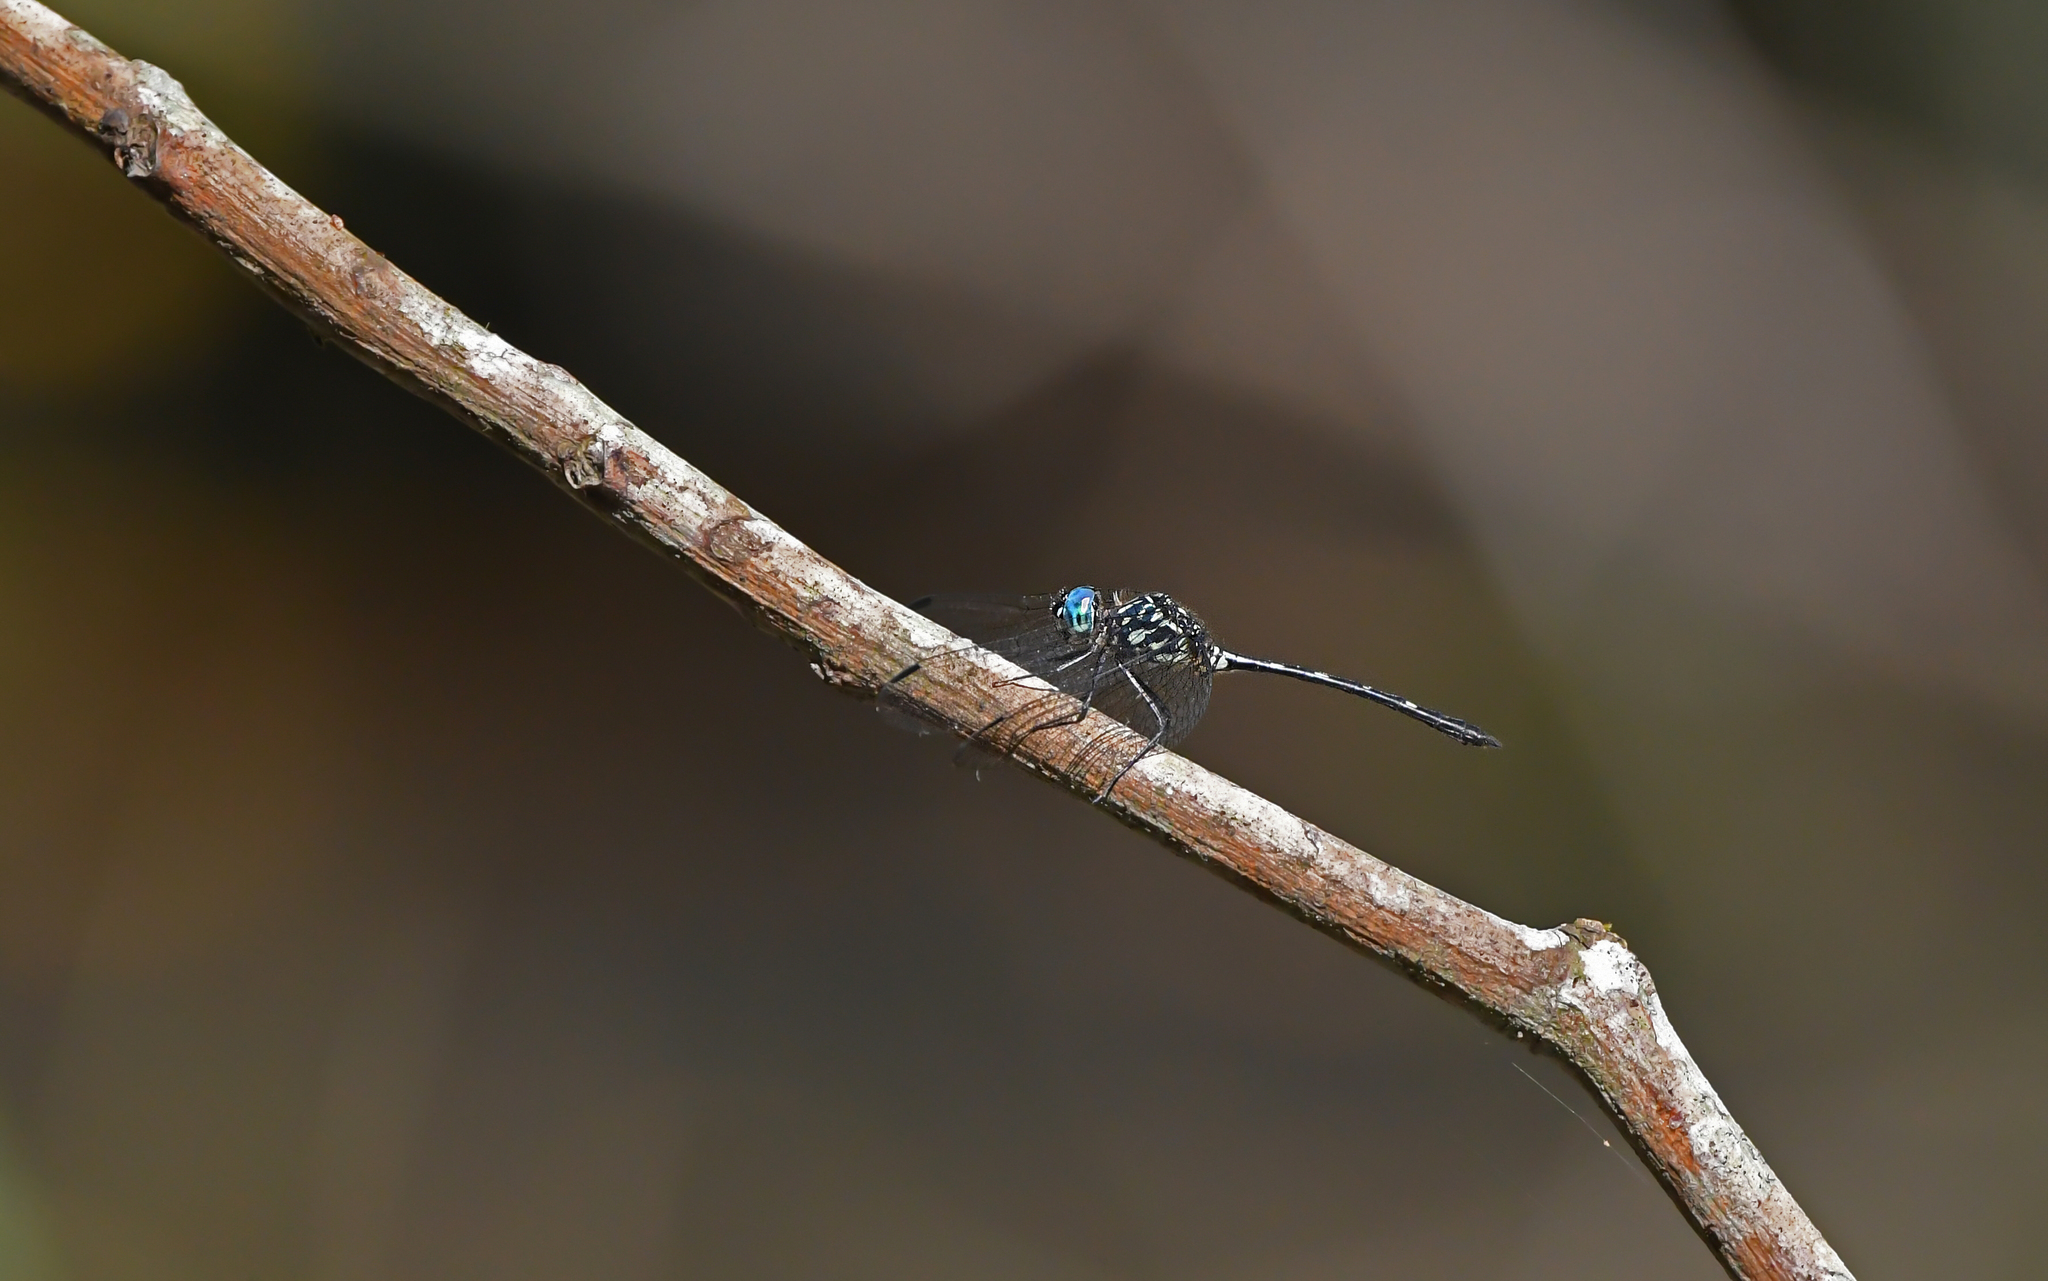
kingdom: Animalia
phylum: Arthropoda
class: Insecta
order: Odonata
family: Libellulidae
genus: Dythemis
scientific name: Dythemis nigra
